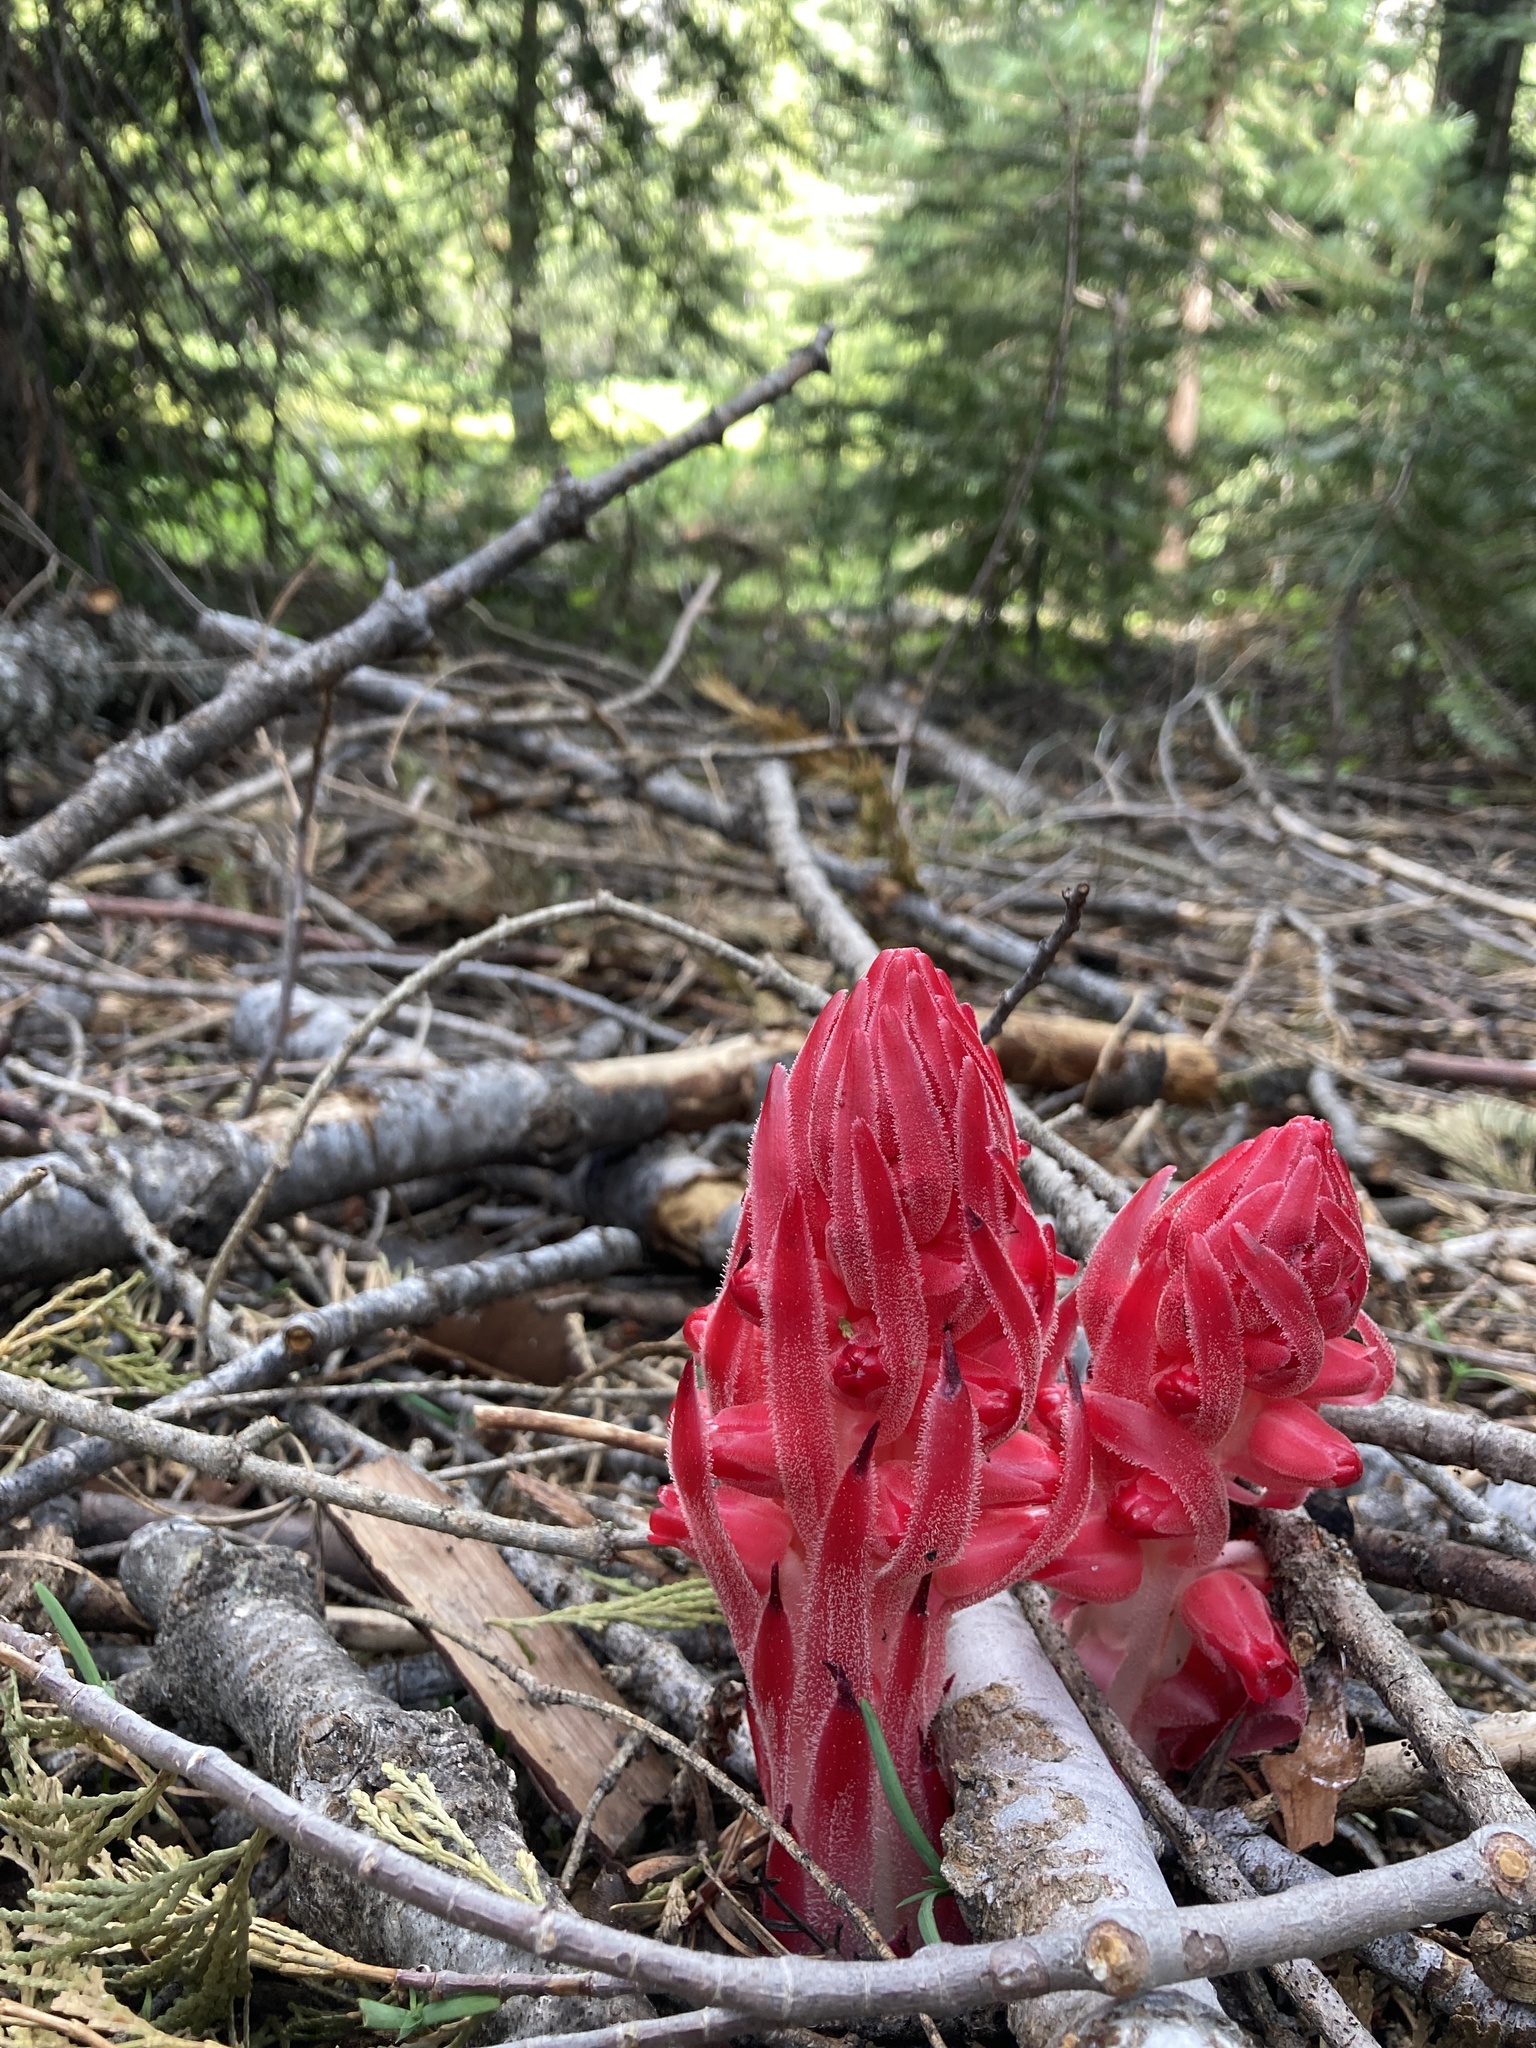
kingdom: Plantae
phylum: Tracheophyta
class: Magnoliopsida
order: Ericales
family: Ericaceae
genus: Sarcodes
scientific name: Sarcodes sanguinea
